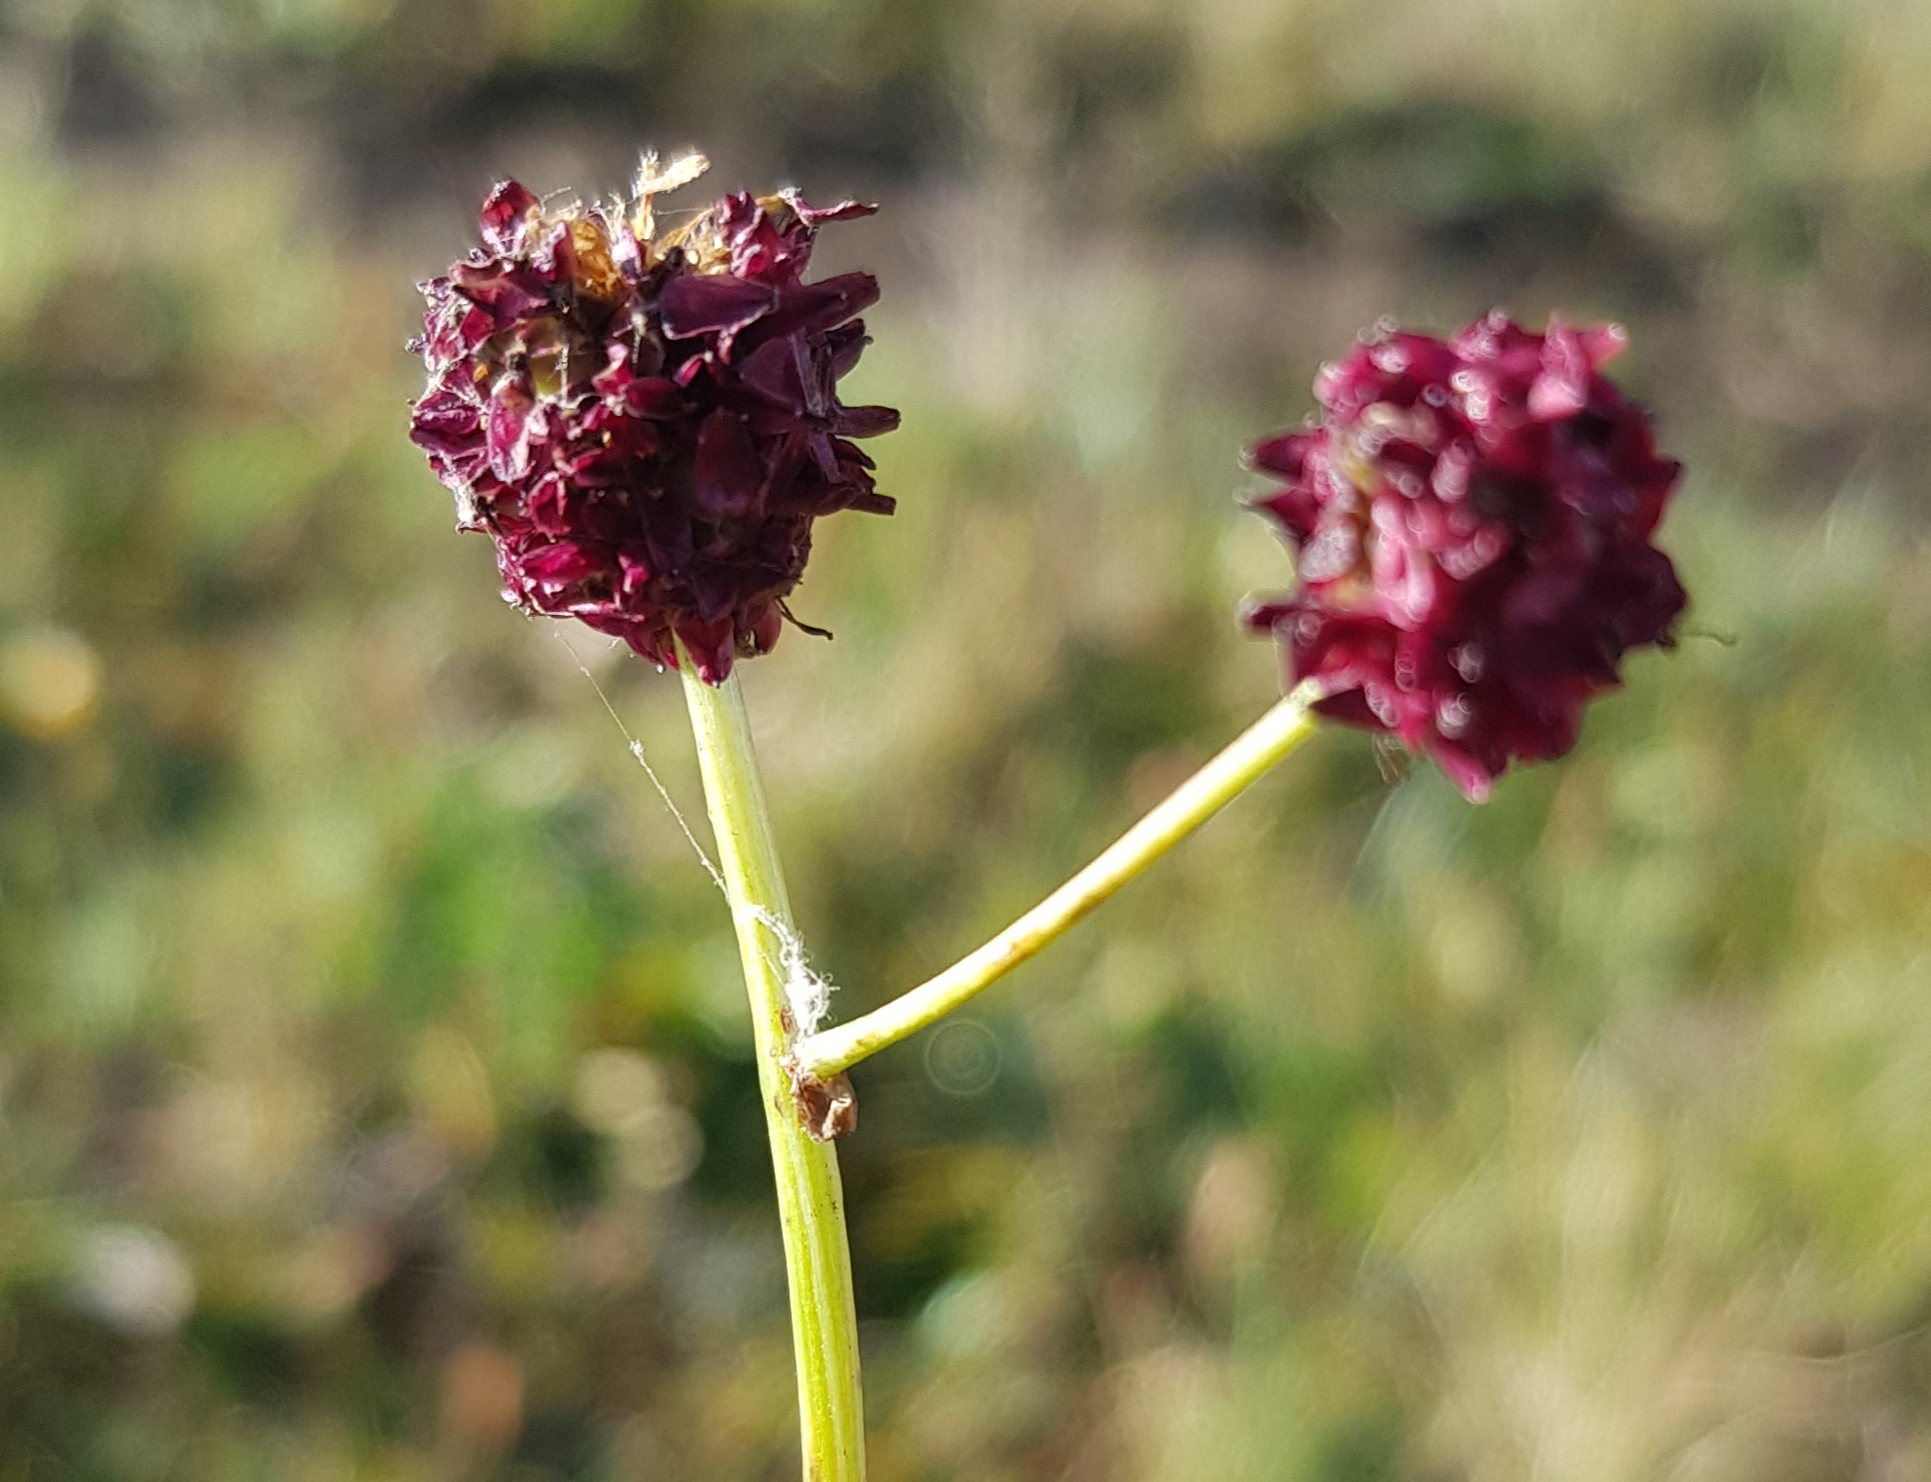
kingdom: Plantae
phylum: Tracheophyta
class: Magnoliopsida
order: Rosales
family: Rosaceae
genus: Sanguisorba
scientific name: Sanguisorba officinalis
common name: Great burnet
